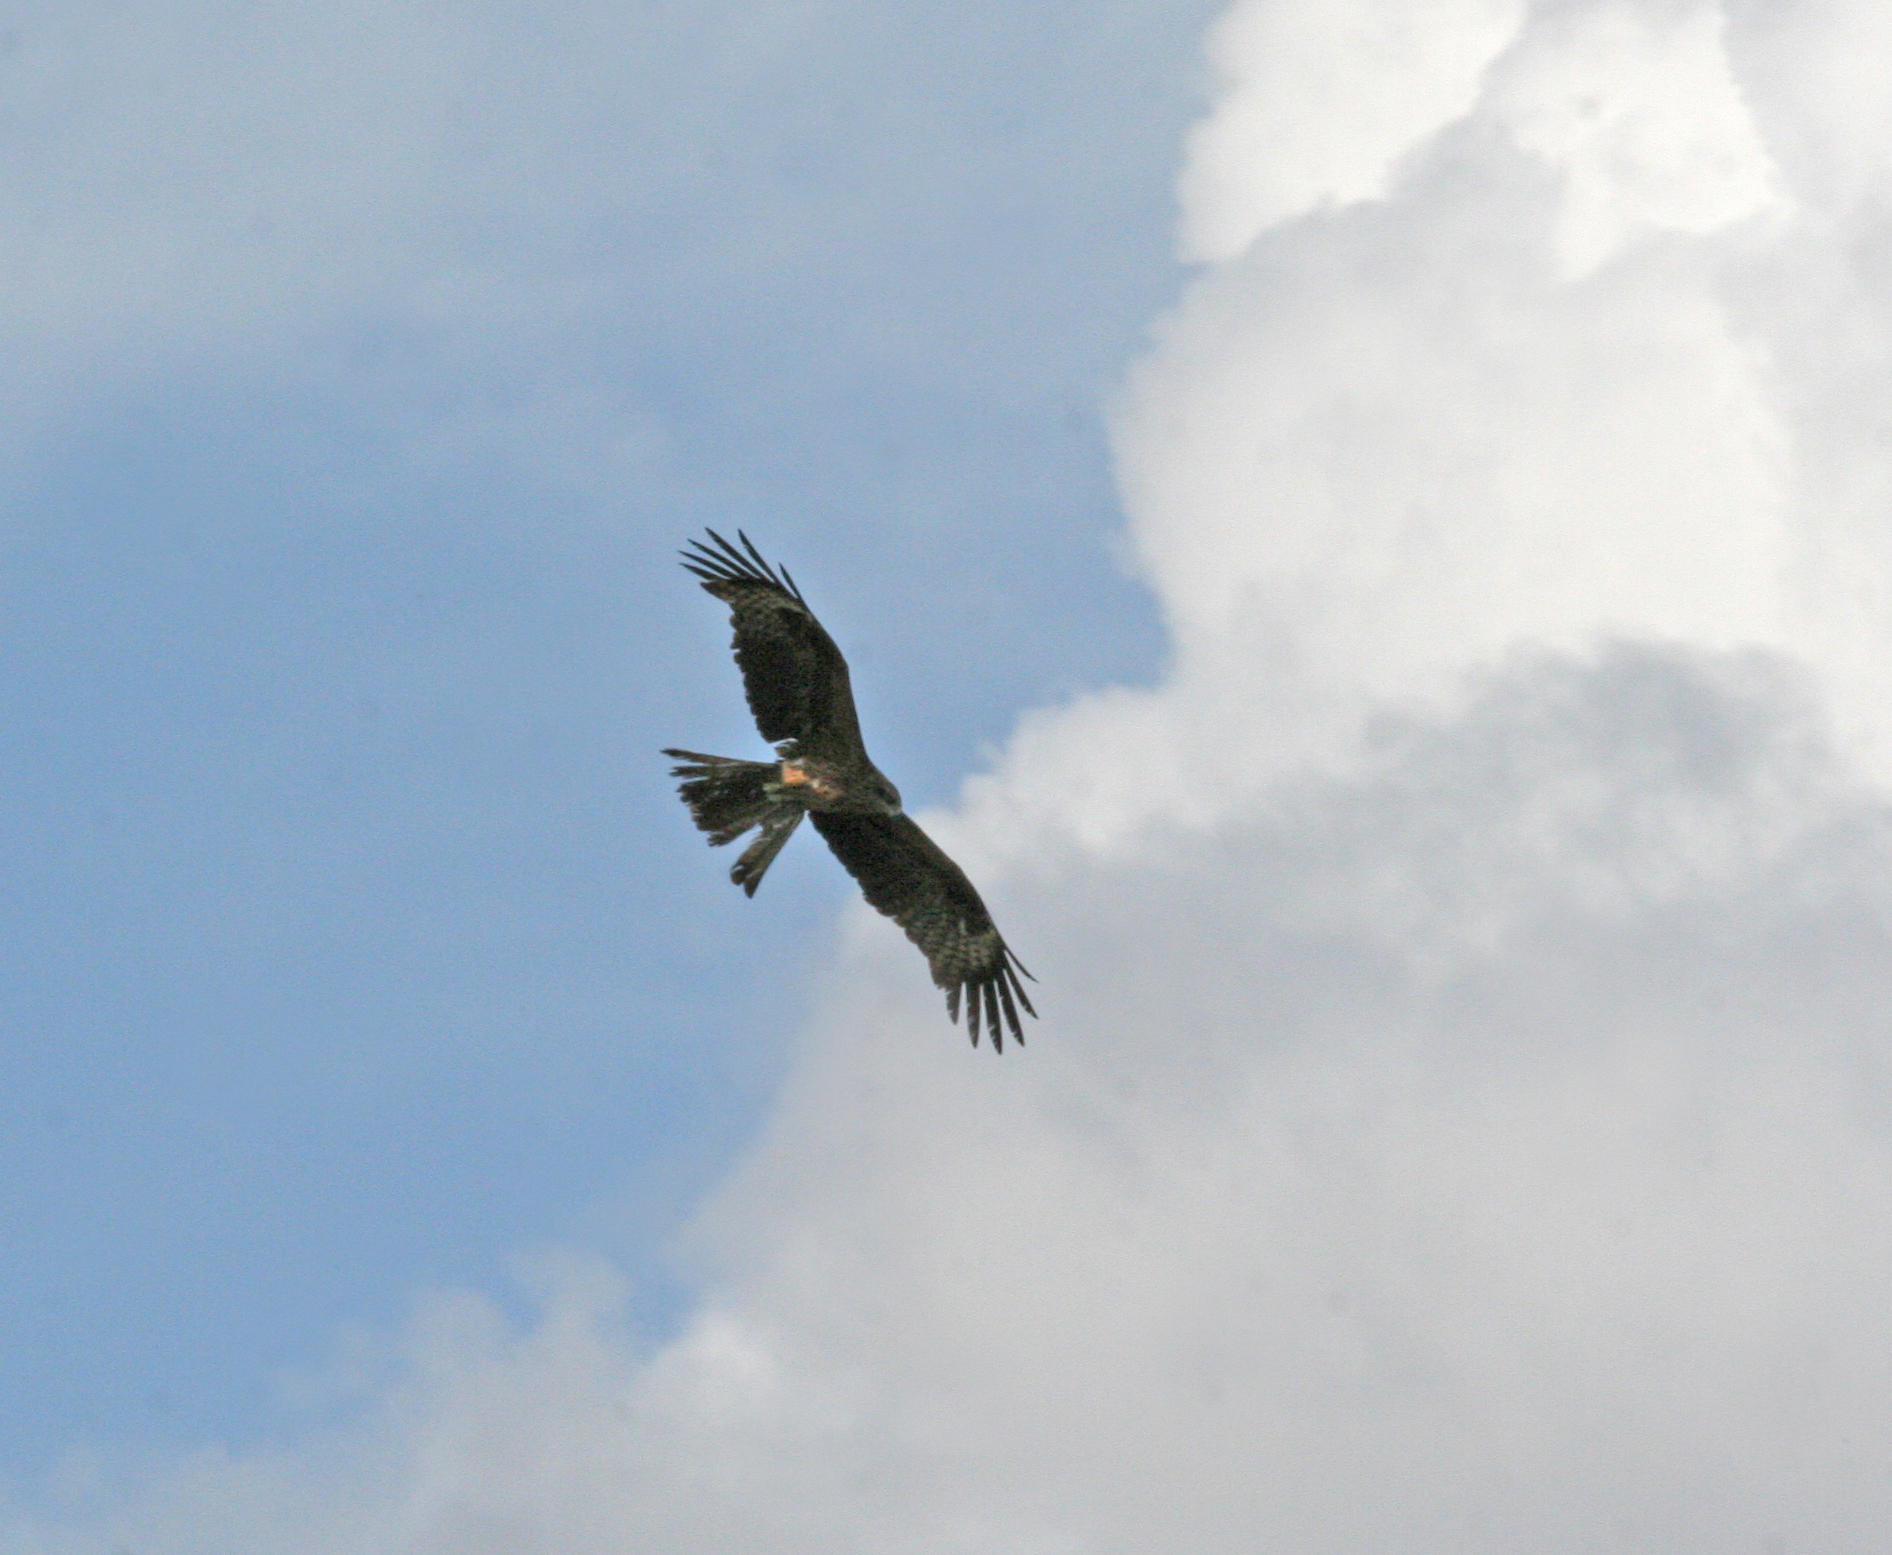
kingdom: Animalia
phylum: Chordata
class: Aves
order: Accipitriformes
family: Accipitridae
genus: Milvus
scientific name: Milvus migrans
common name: Black kite
